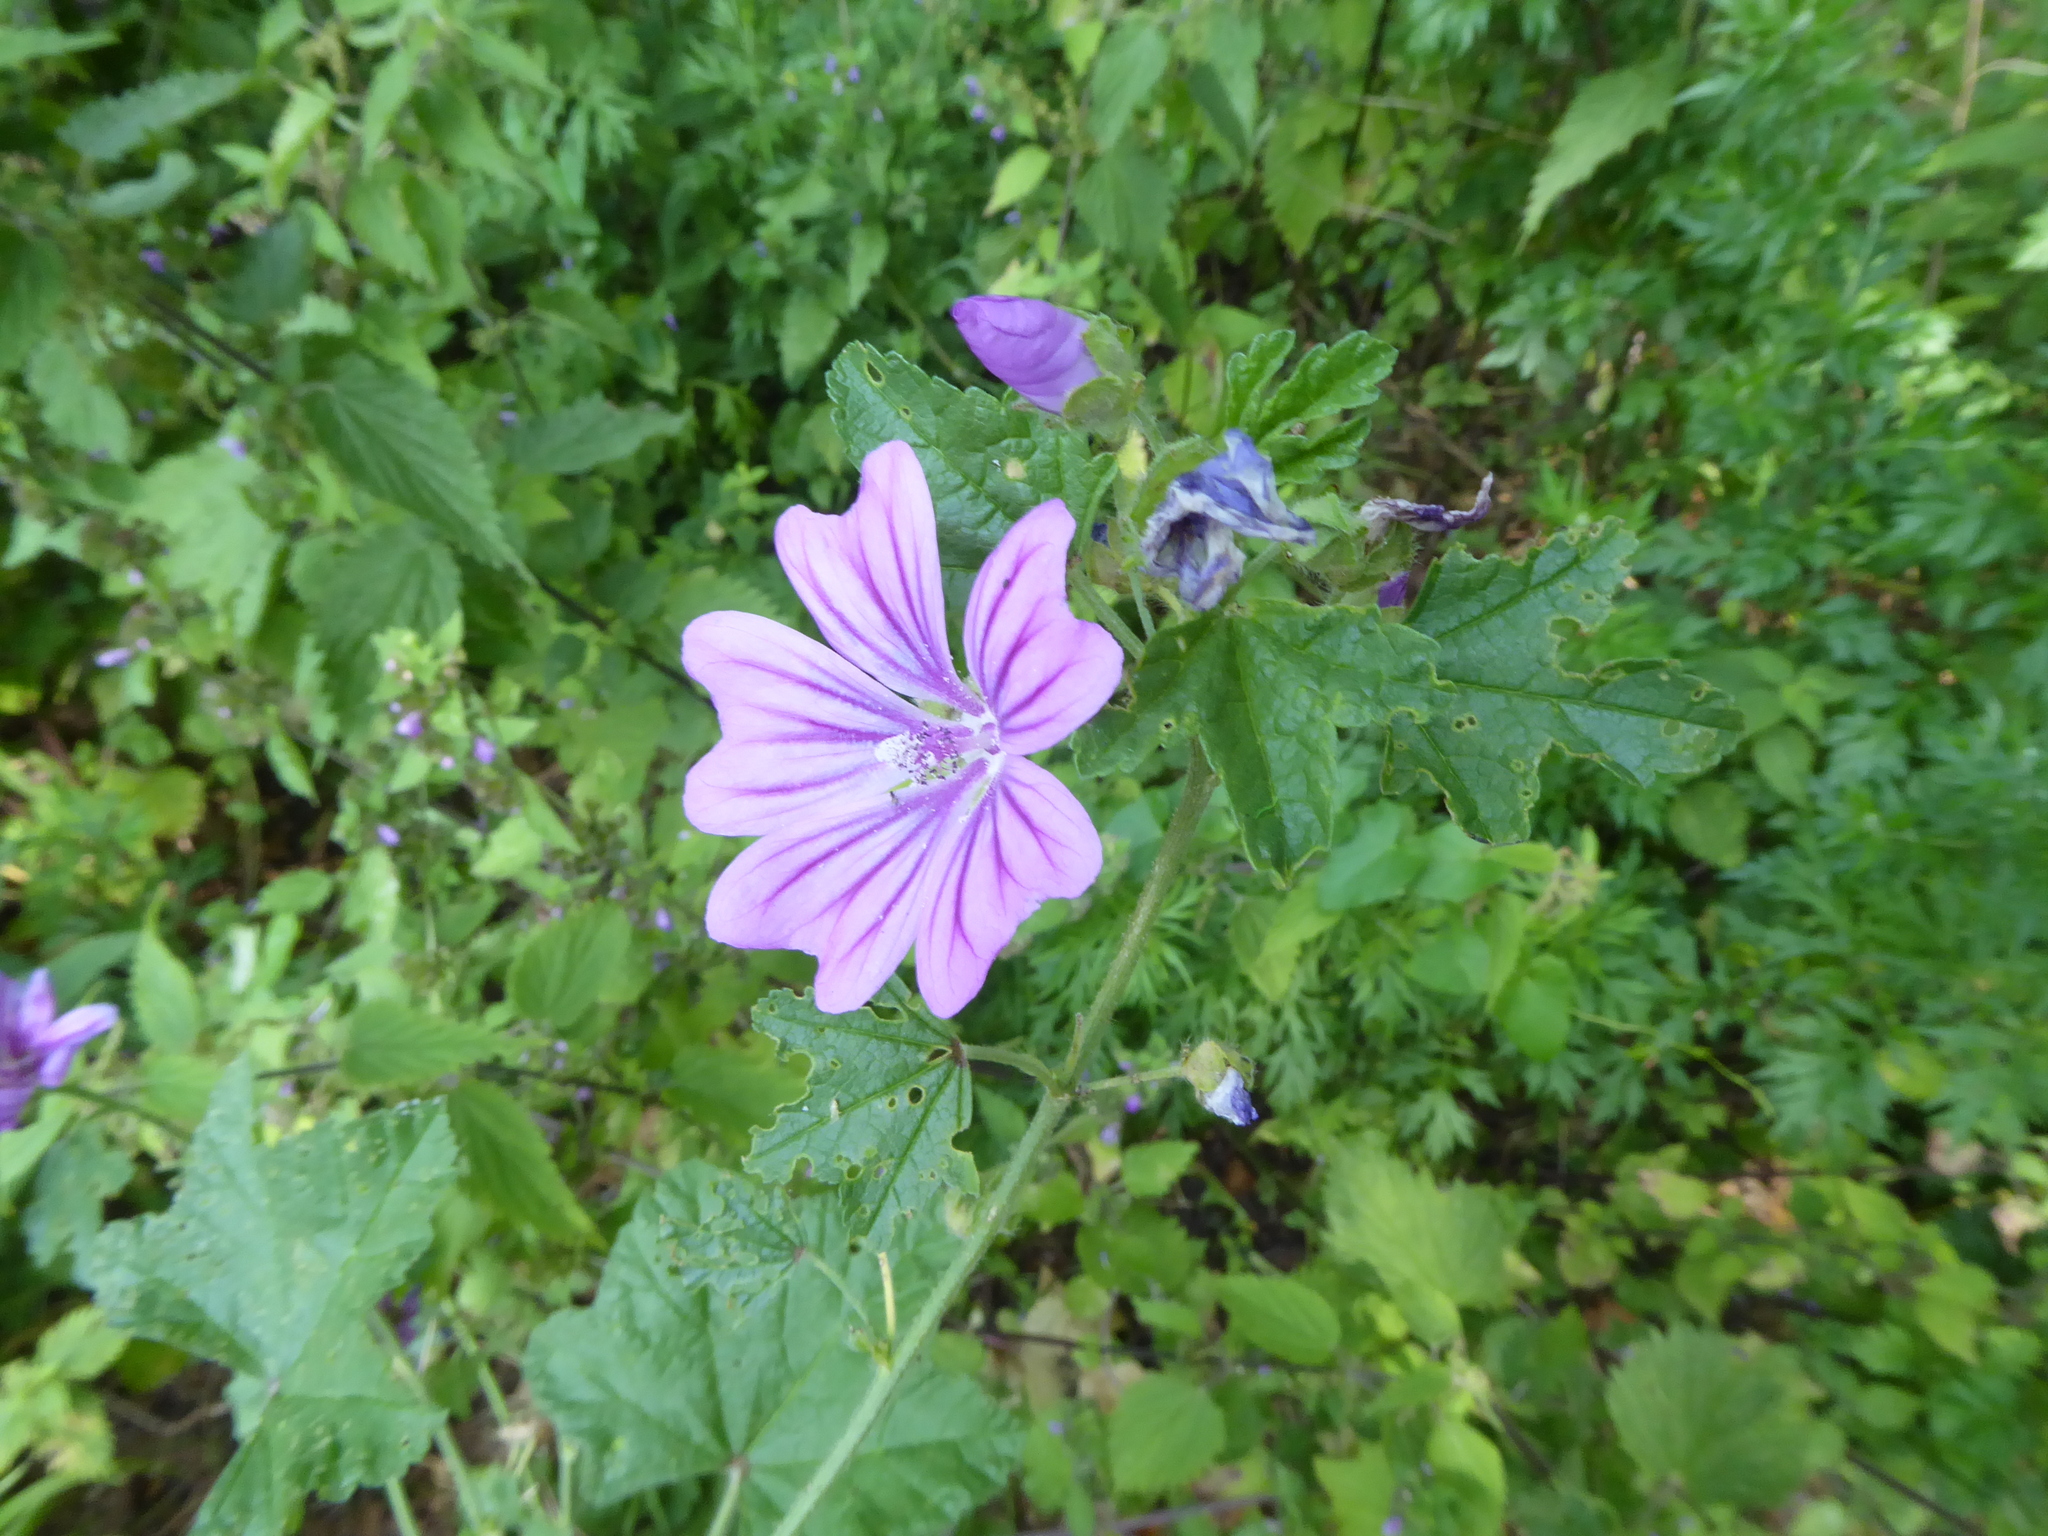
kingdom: Plantae
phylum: Tracheophyta
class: Magnoliopsida
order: Malvales
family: Malvaceae
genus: Malva
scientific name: Malva sylvestris
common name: Common mallow
